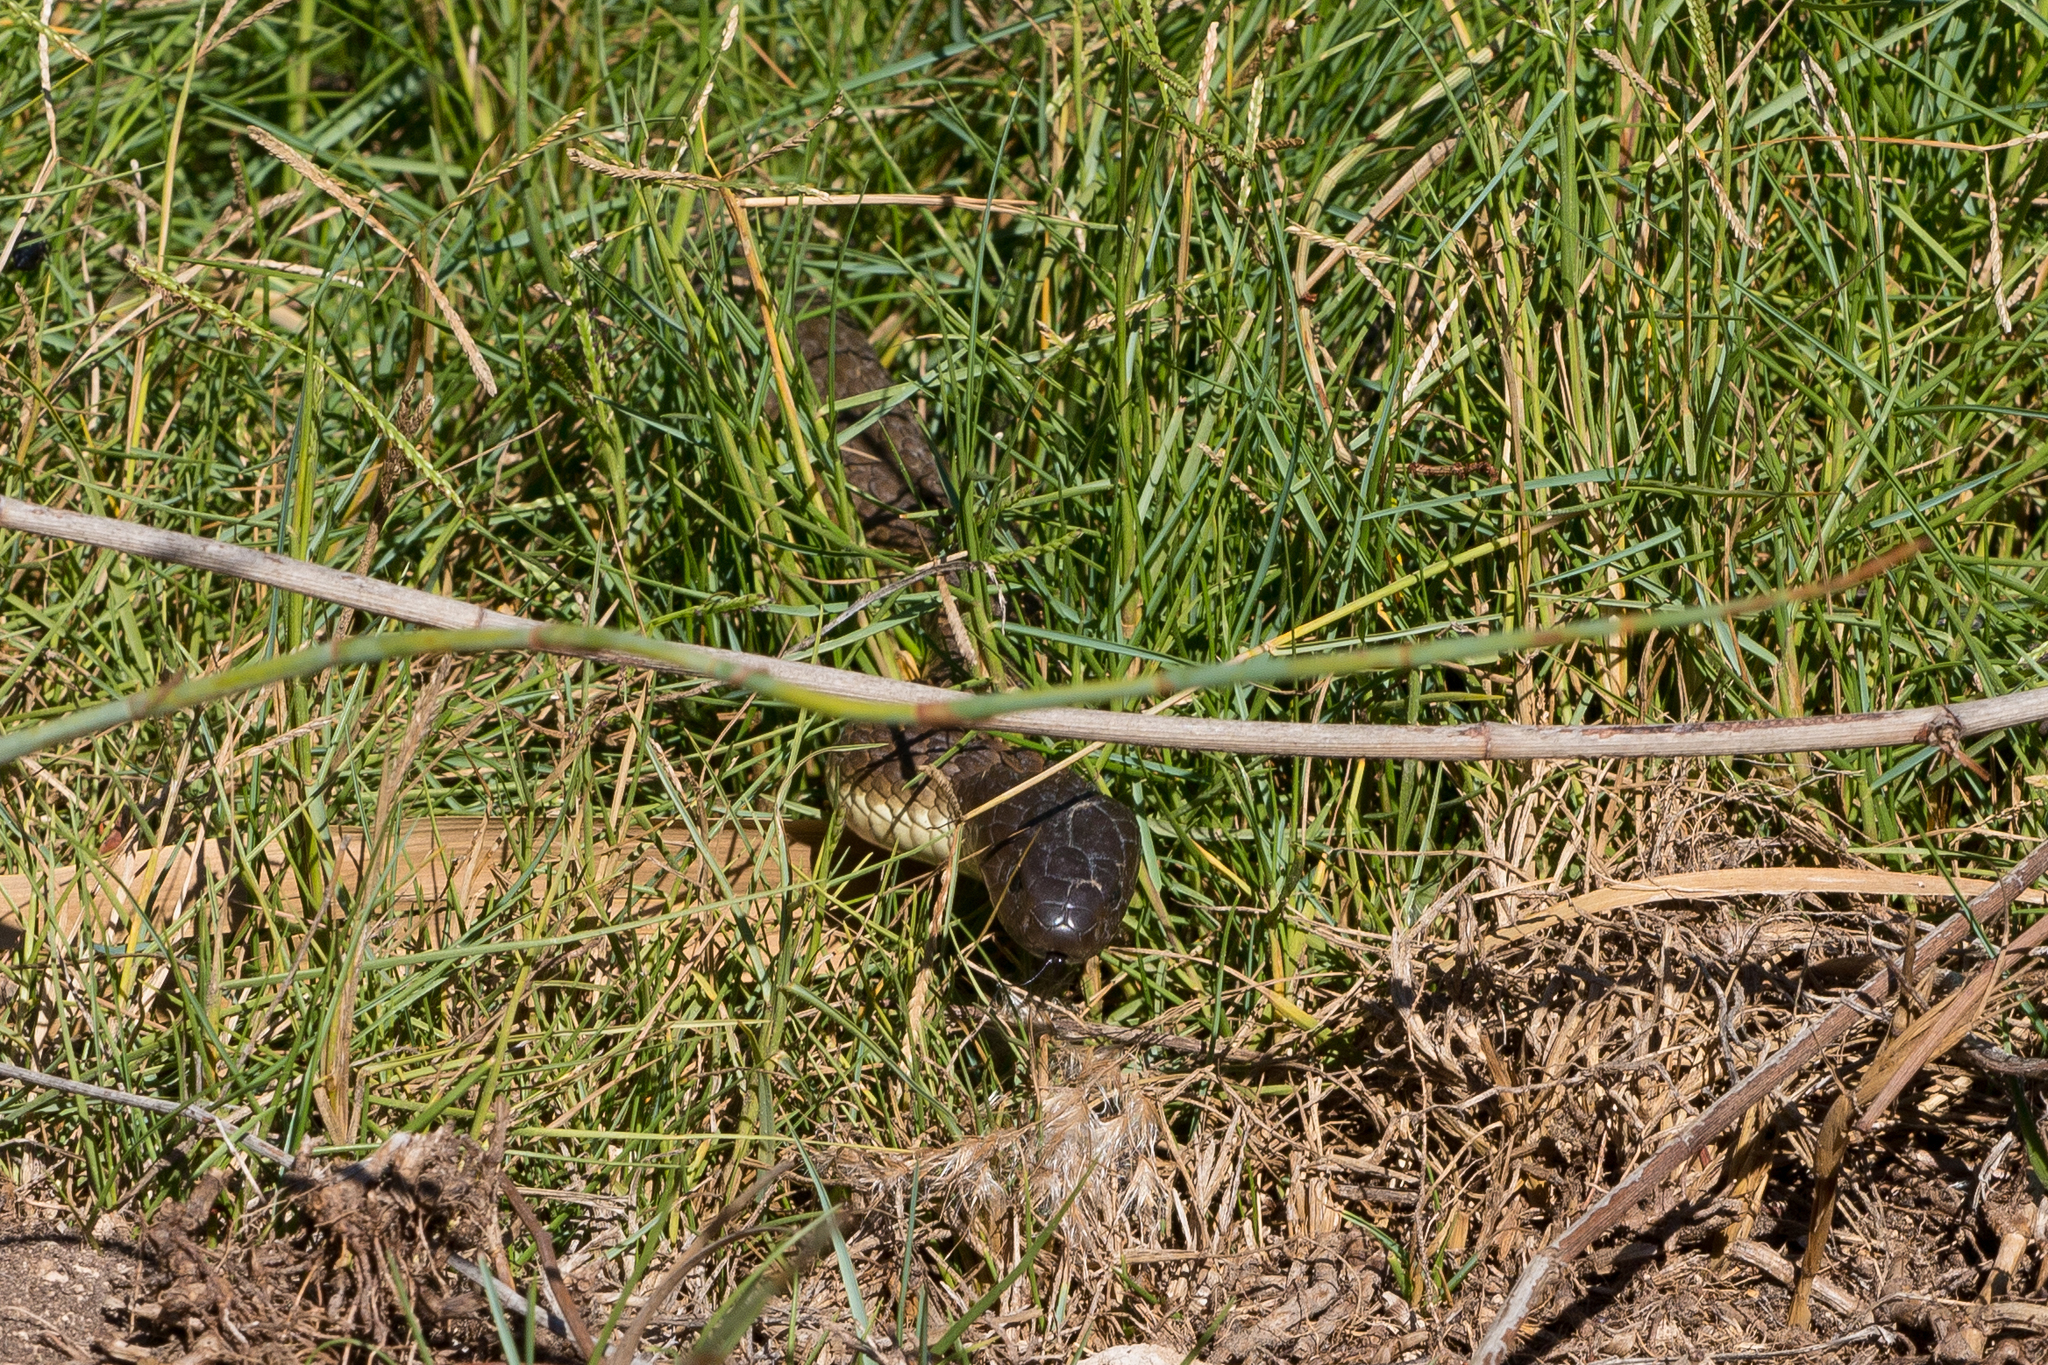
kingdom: Animalia
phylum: Chordata
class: Squamata
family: Elapidae
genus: Notechis
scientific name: Notechis scutatus
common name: Mainland tiger snake
